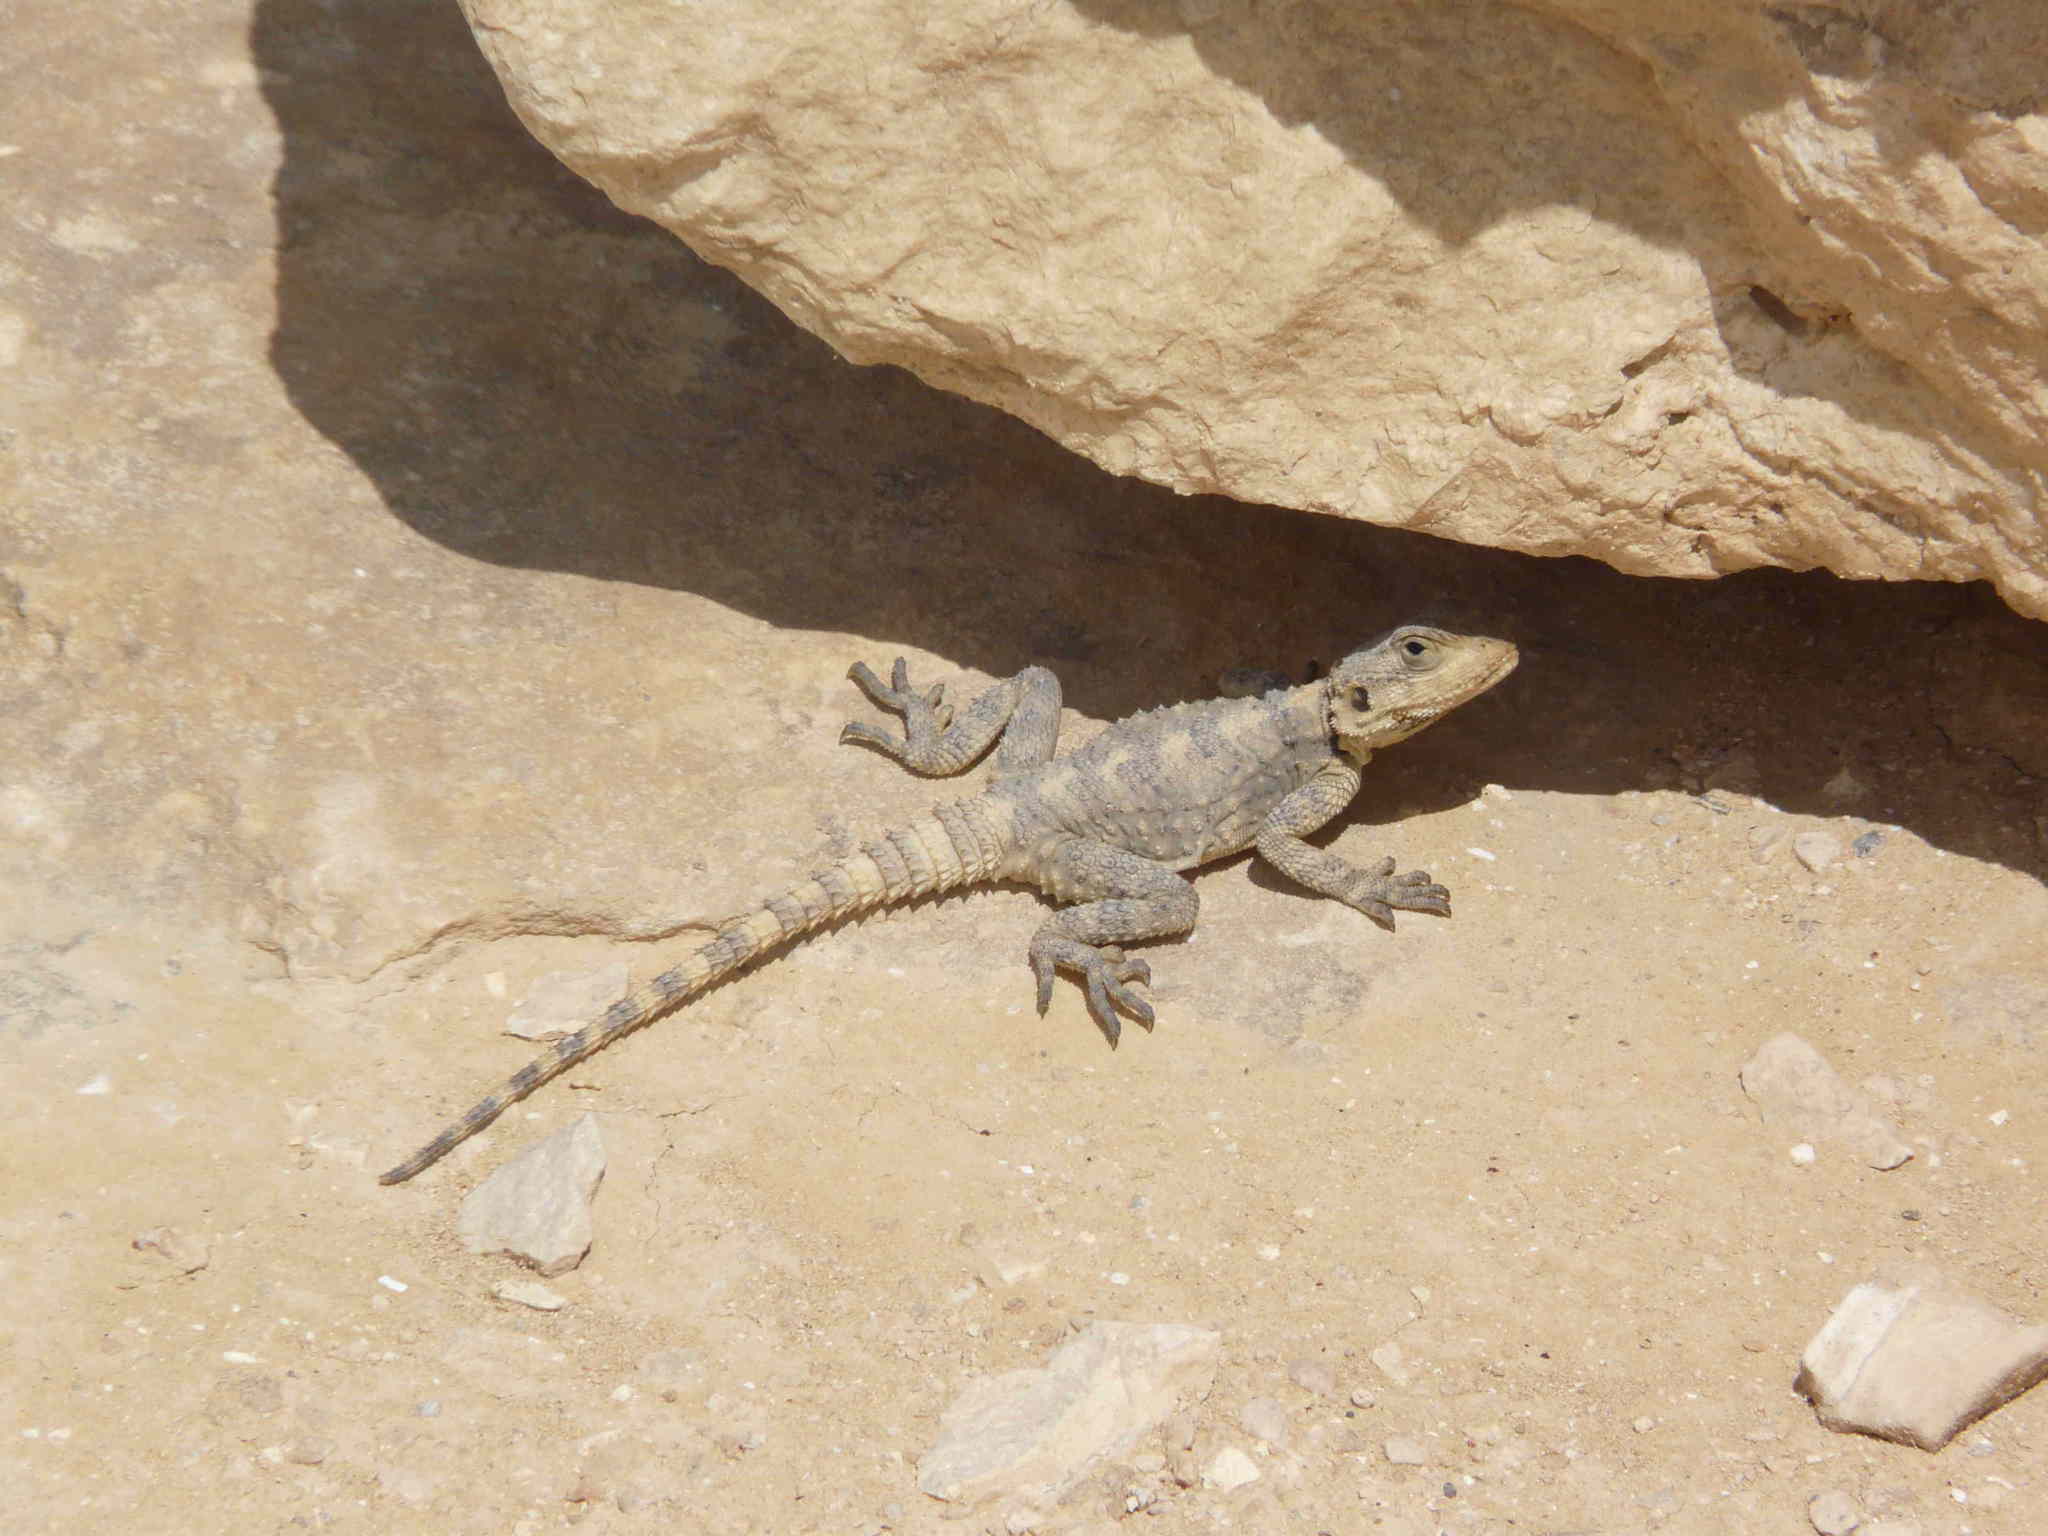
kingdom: Animalia
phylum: Chordata
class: Squamata
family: Agamidae
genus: Laudakia
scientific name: Laudakia vulgaris
